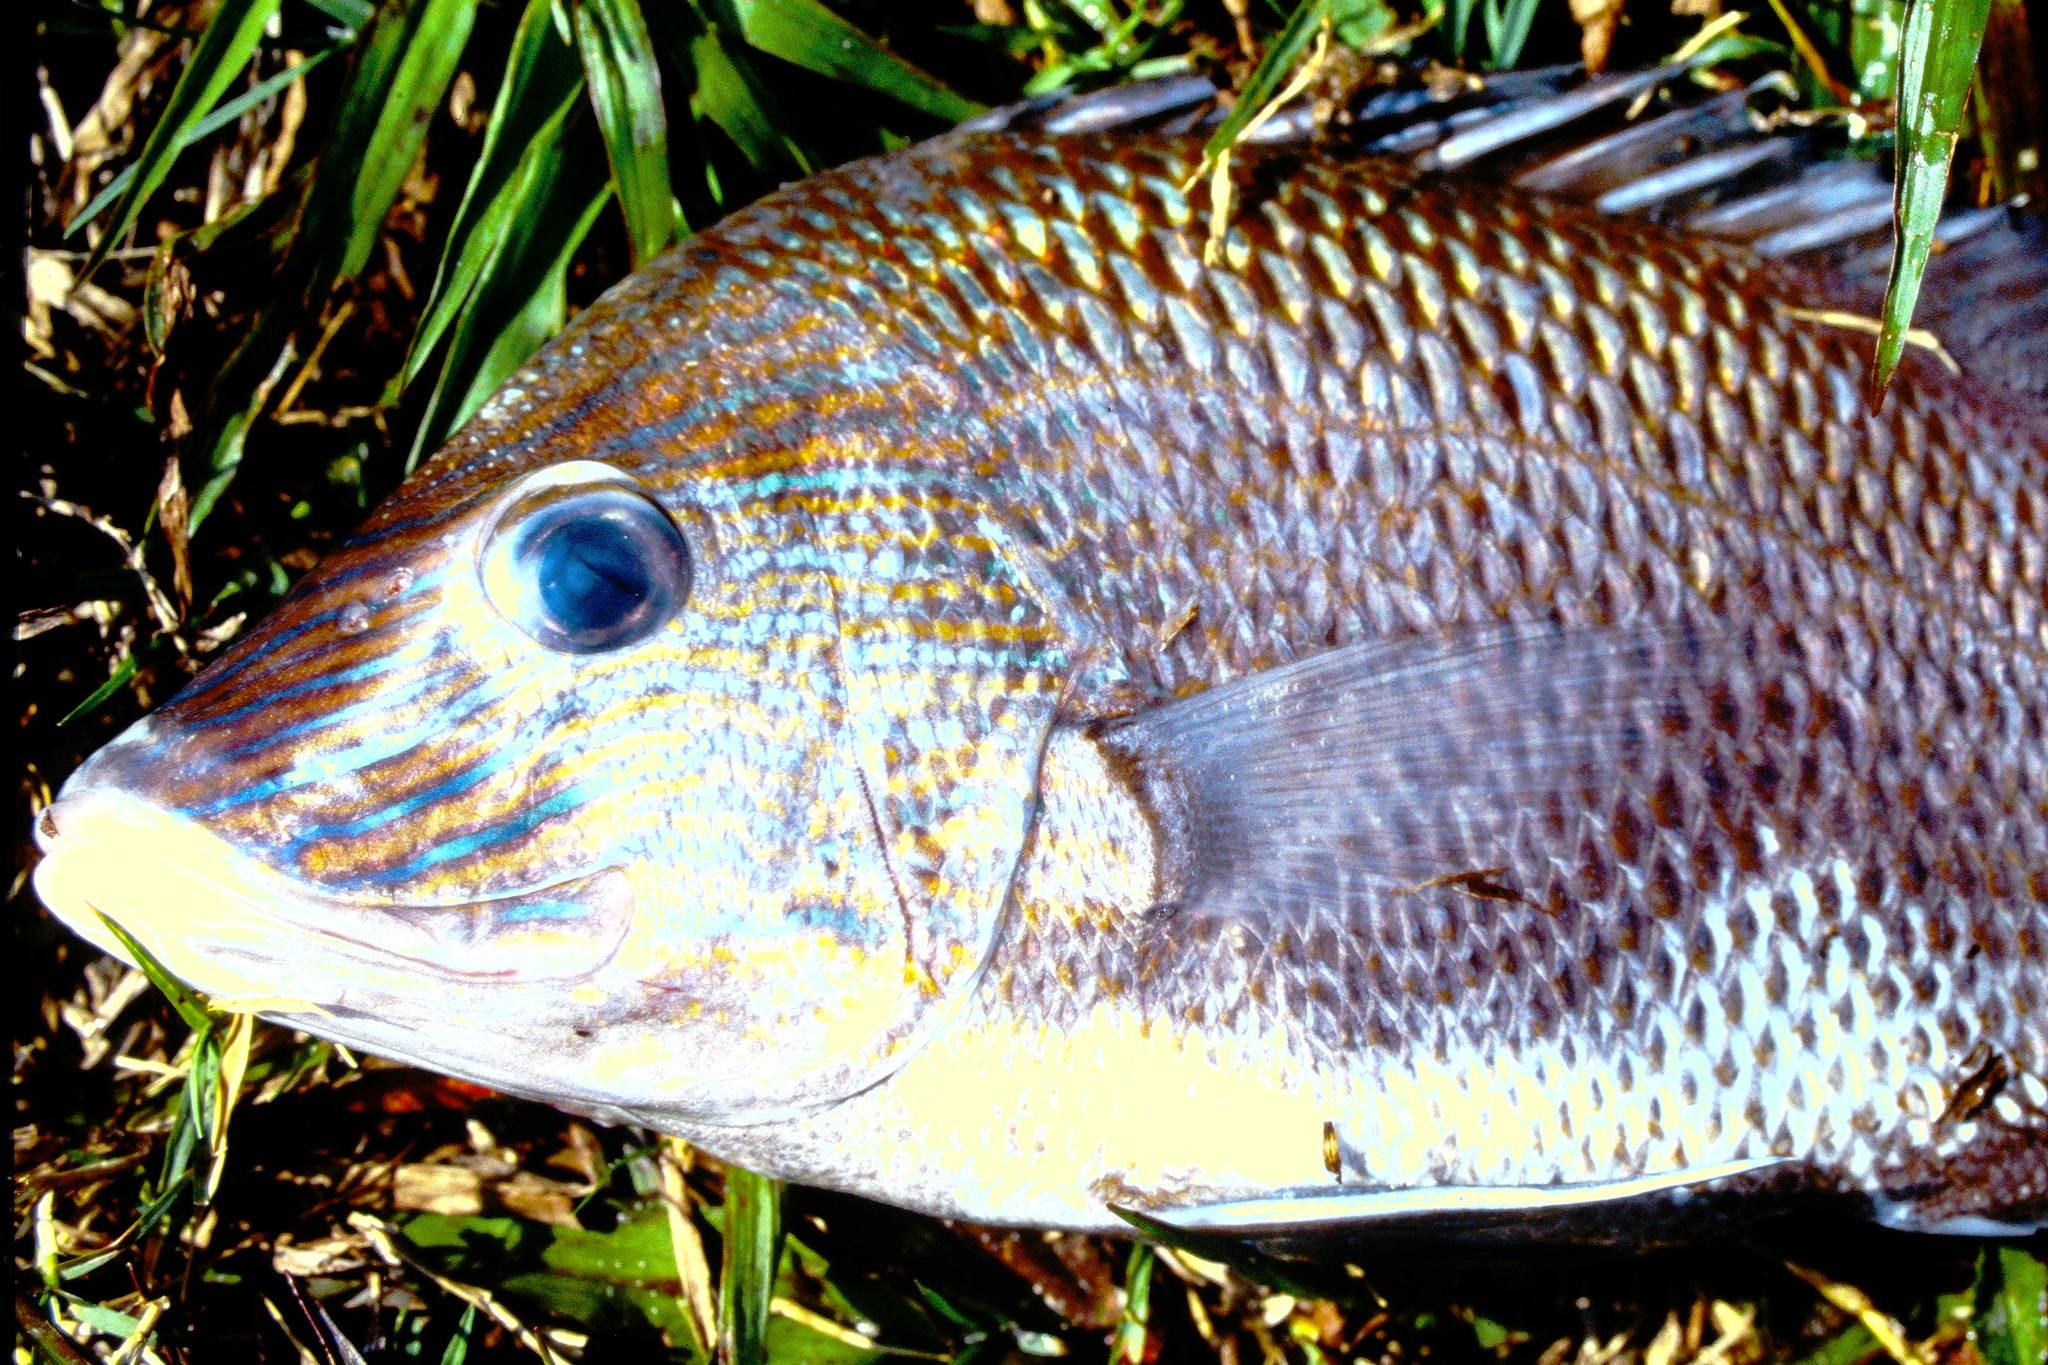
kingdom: Animalia
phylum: Chordata
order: Perciformes
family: Haemulidae
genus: Haemulon
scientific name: Haemulon plumierii
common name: White grunt
